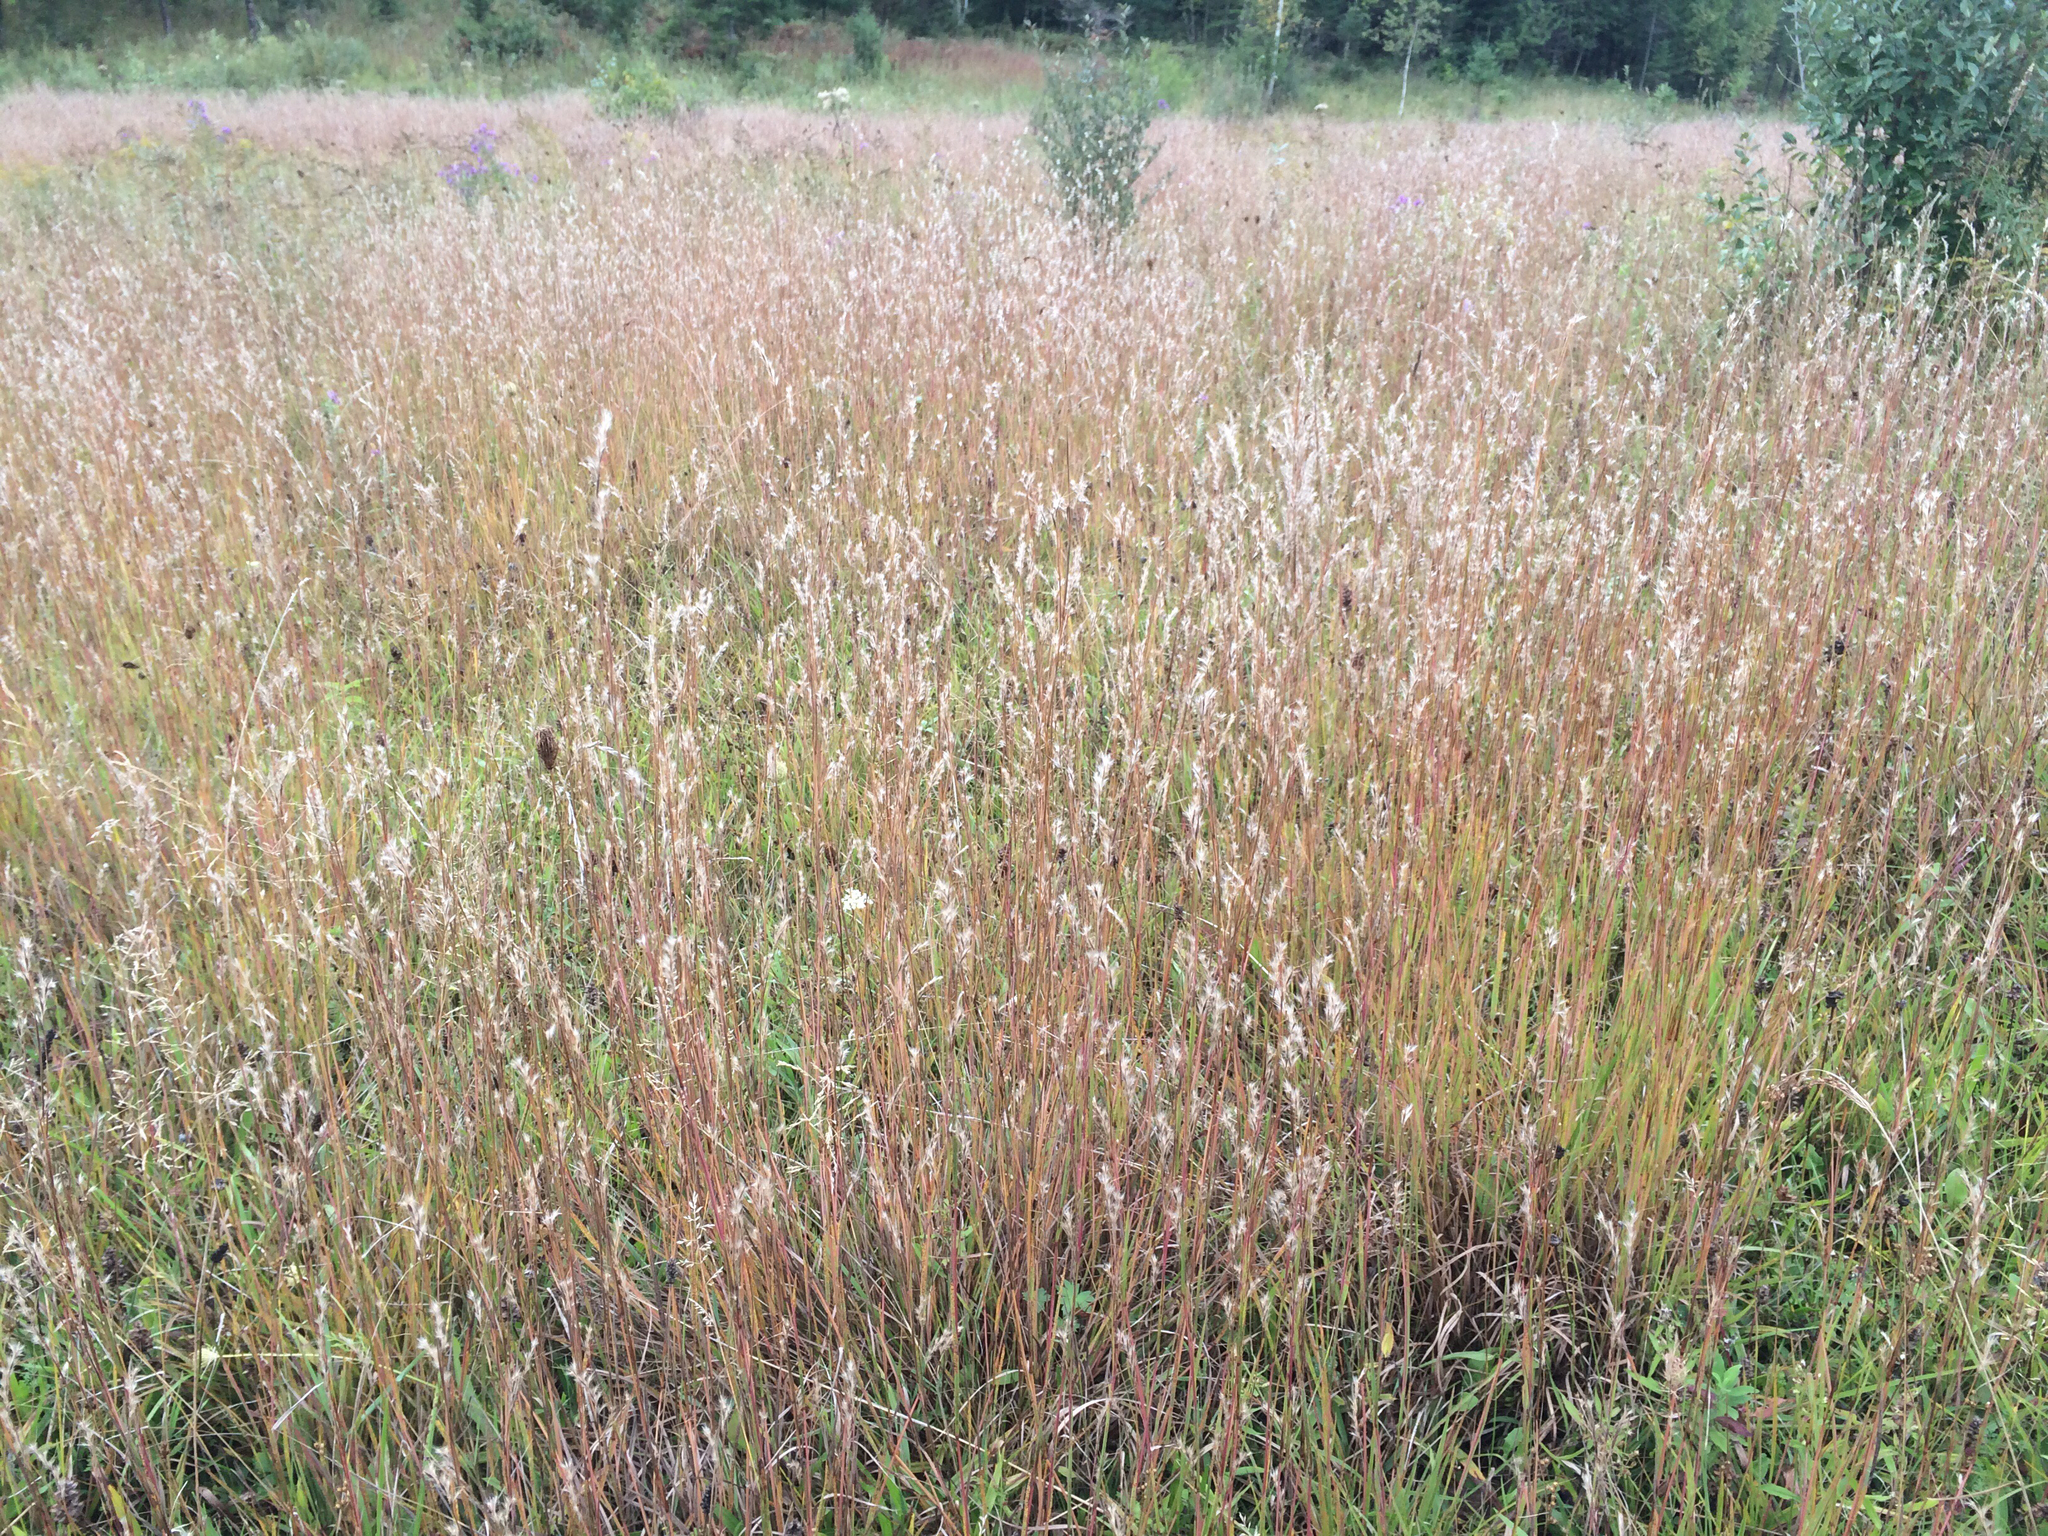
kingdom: Plantae
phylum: Tracheophyta
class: Liliopsida
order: Poales
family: Poaceae
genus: Schizachyrium
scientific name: Schizachyrium scoparium
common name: Little bluestem
